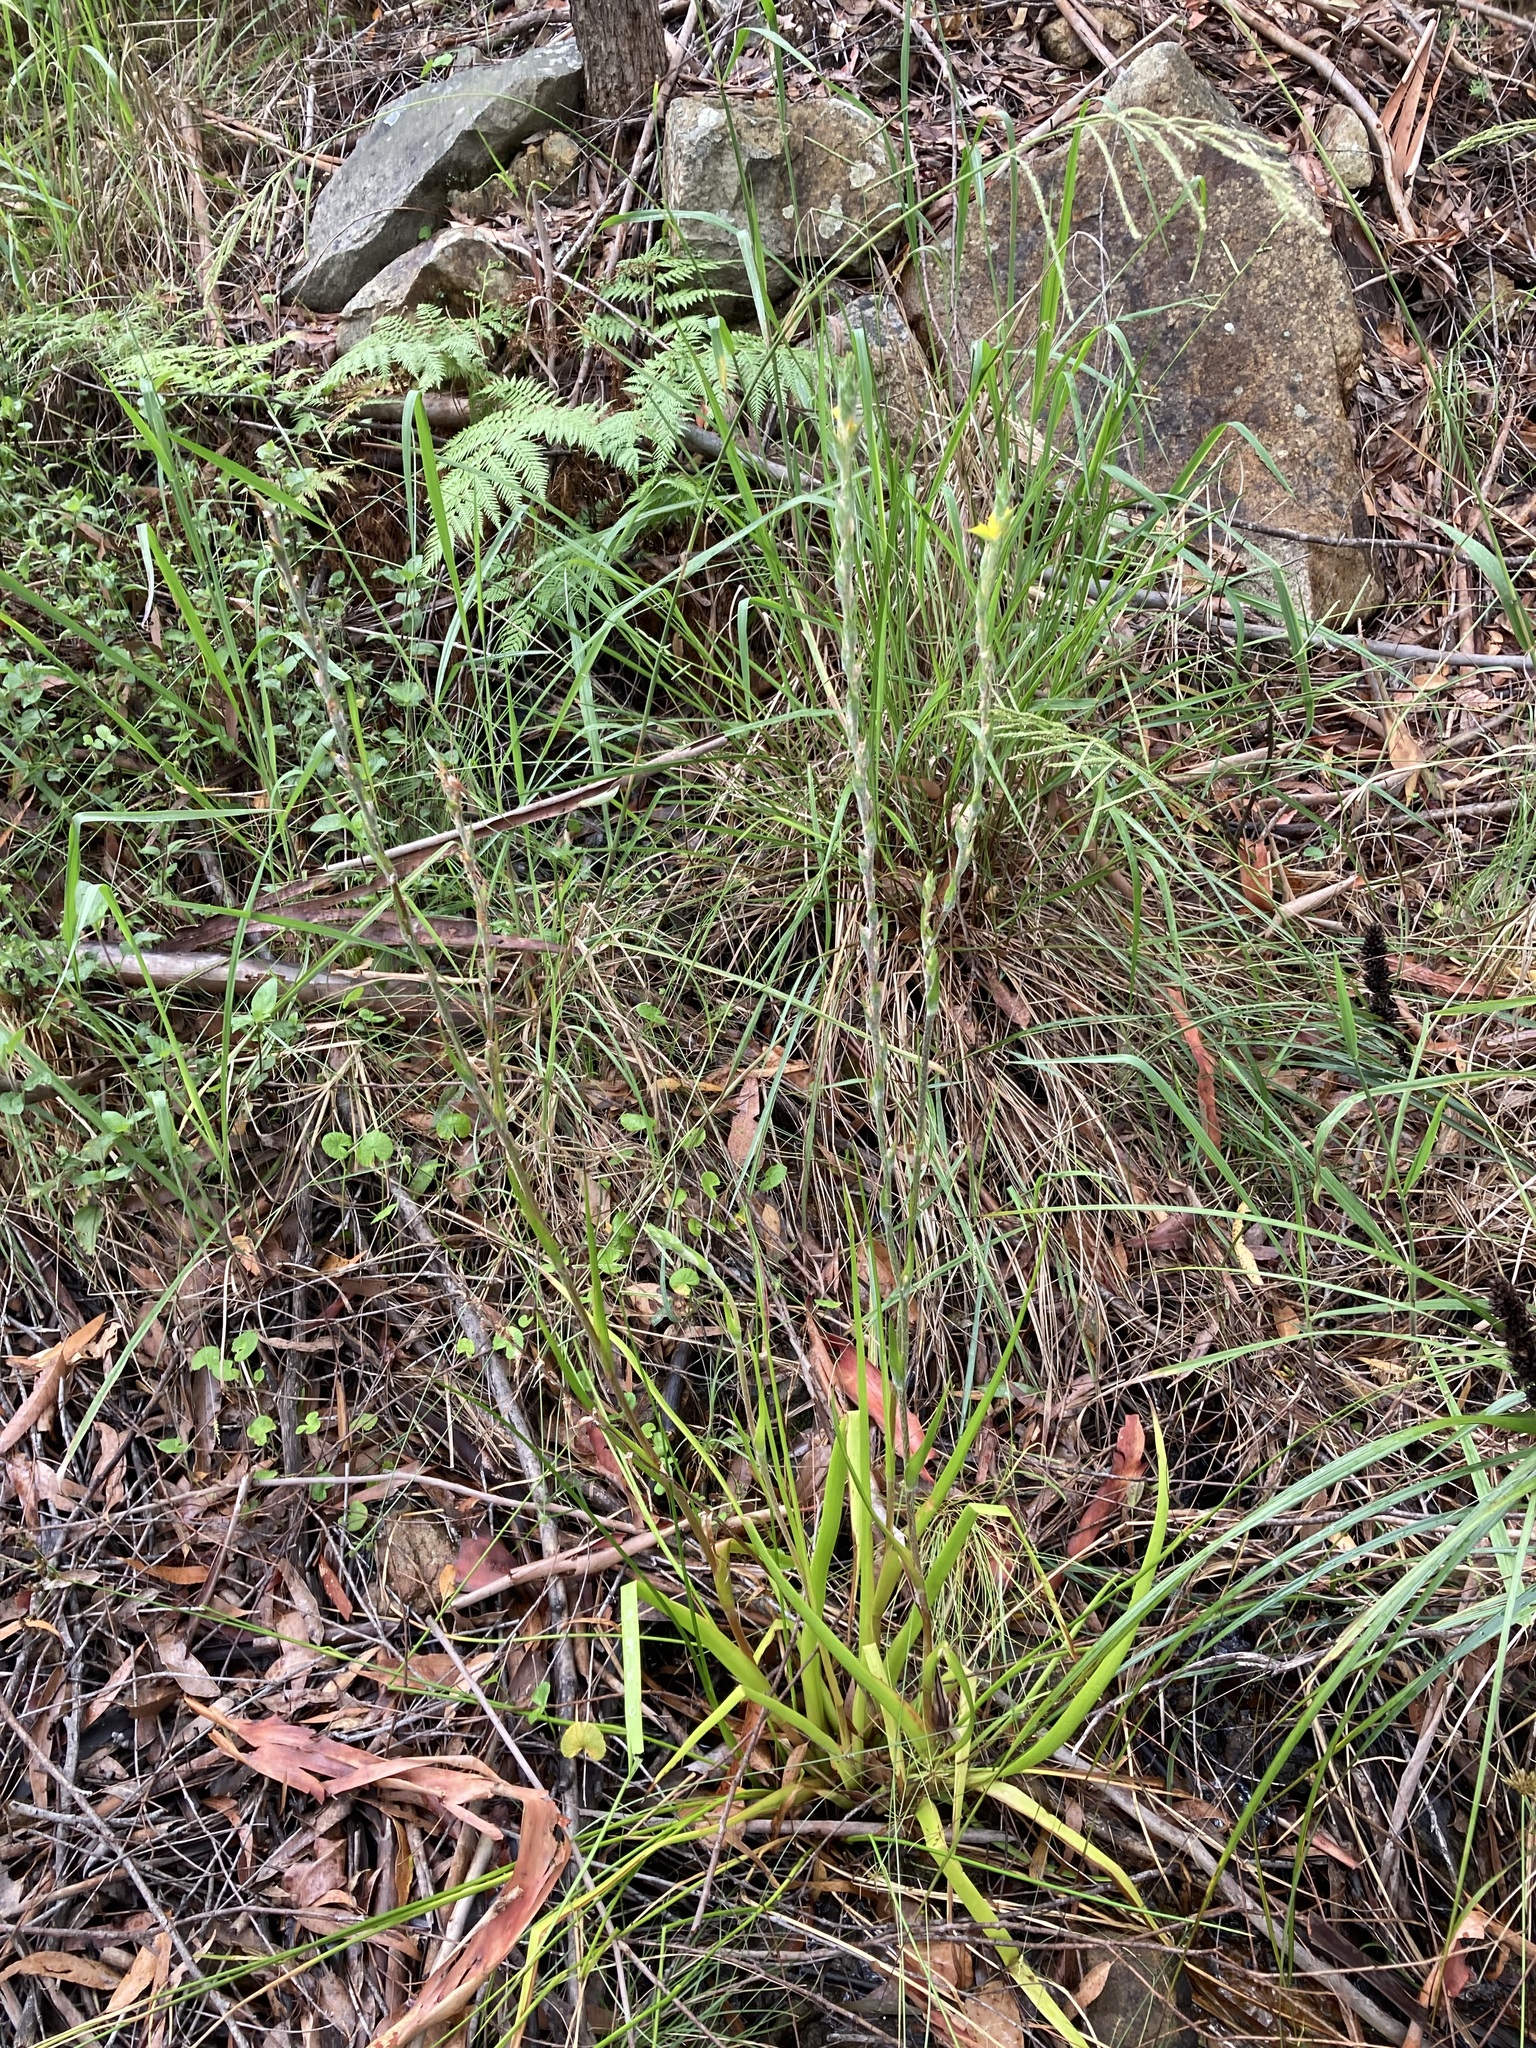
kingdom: Plantae
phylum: Tracheophyta
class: Liliopsida
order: Commelinales
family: Philydraceae
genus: Philydrum
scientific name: Philydrum lanuginosum
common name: Woolly frog's mouth
